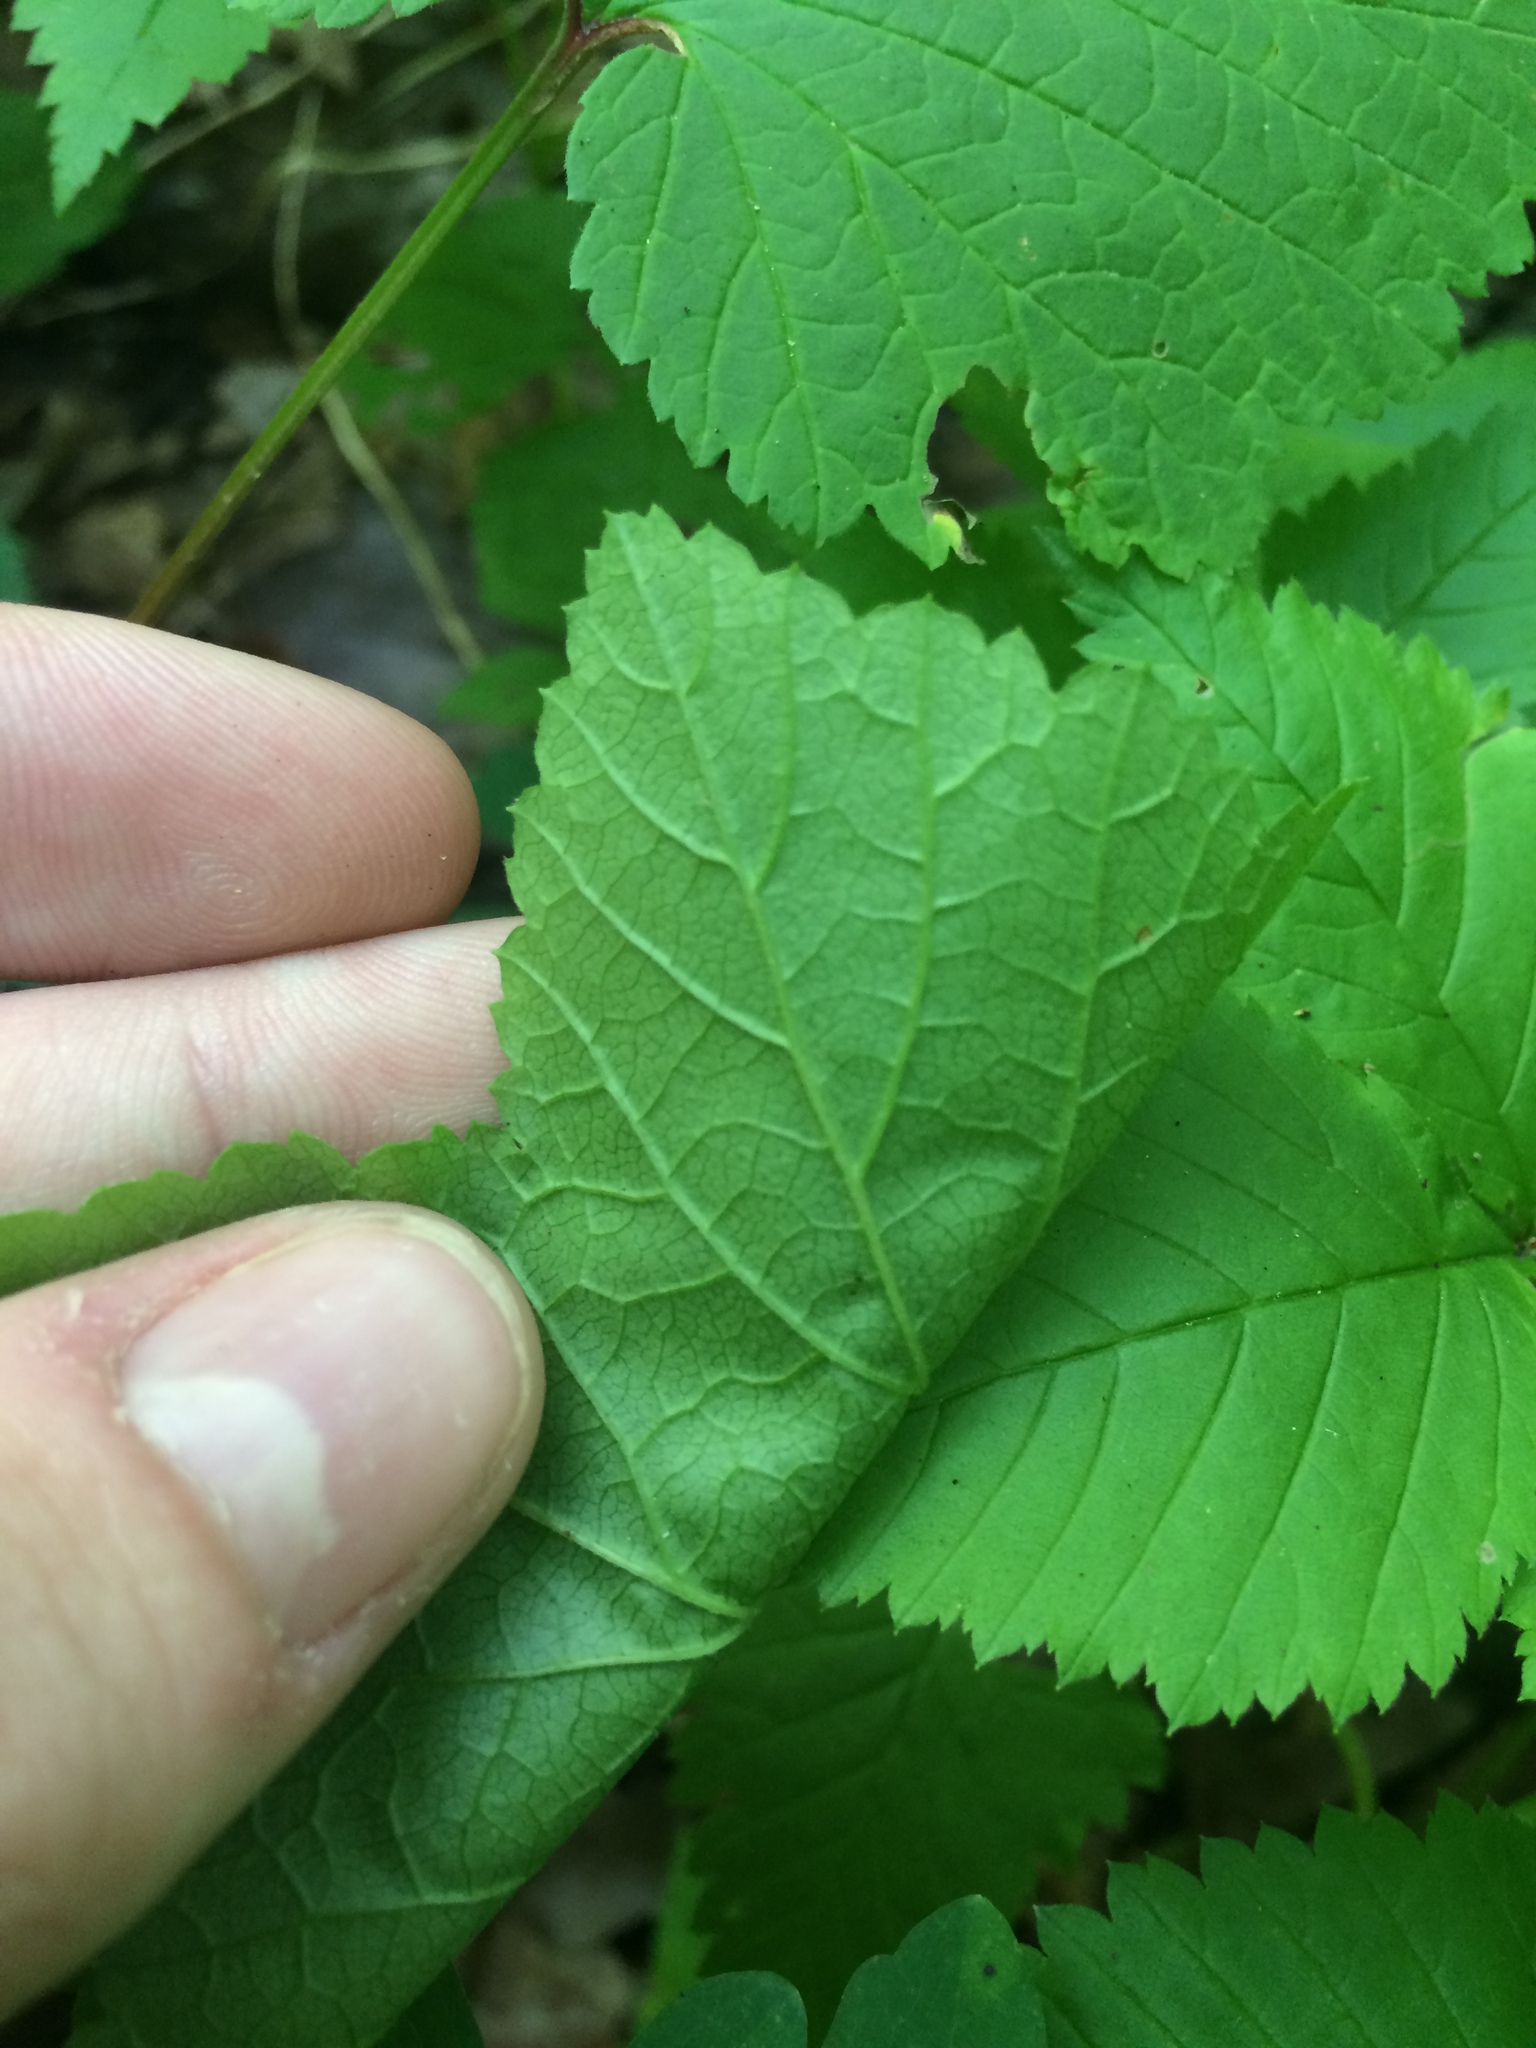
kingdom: Plantae
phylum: Tracheophyta
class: Magnoliopsida
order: Saxifragales
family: Grossulariaceae
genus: Ribes
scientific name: Ribes triste
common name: Swamp red currant
